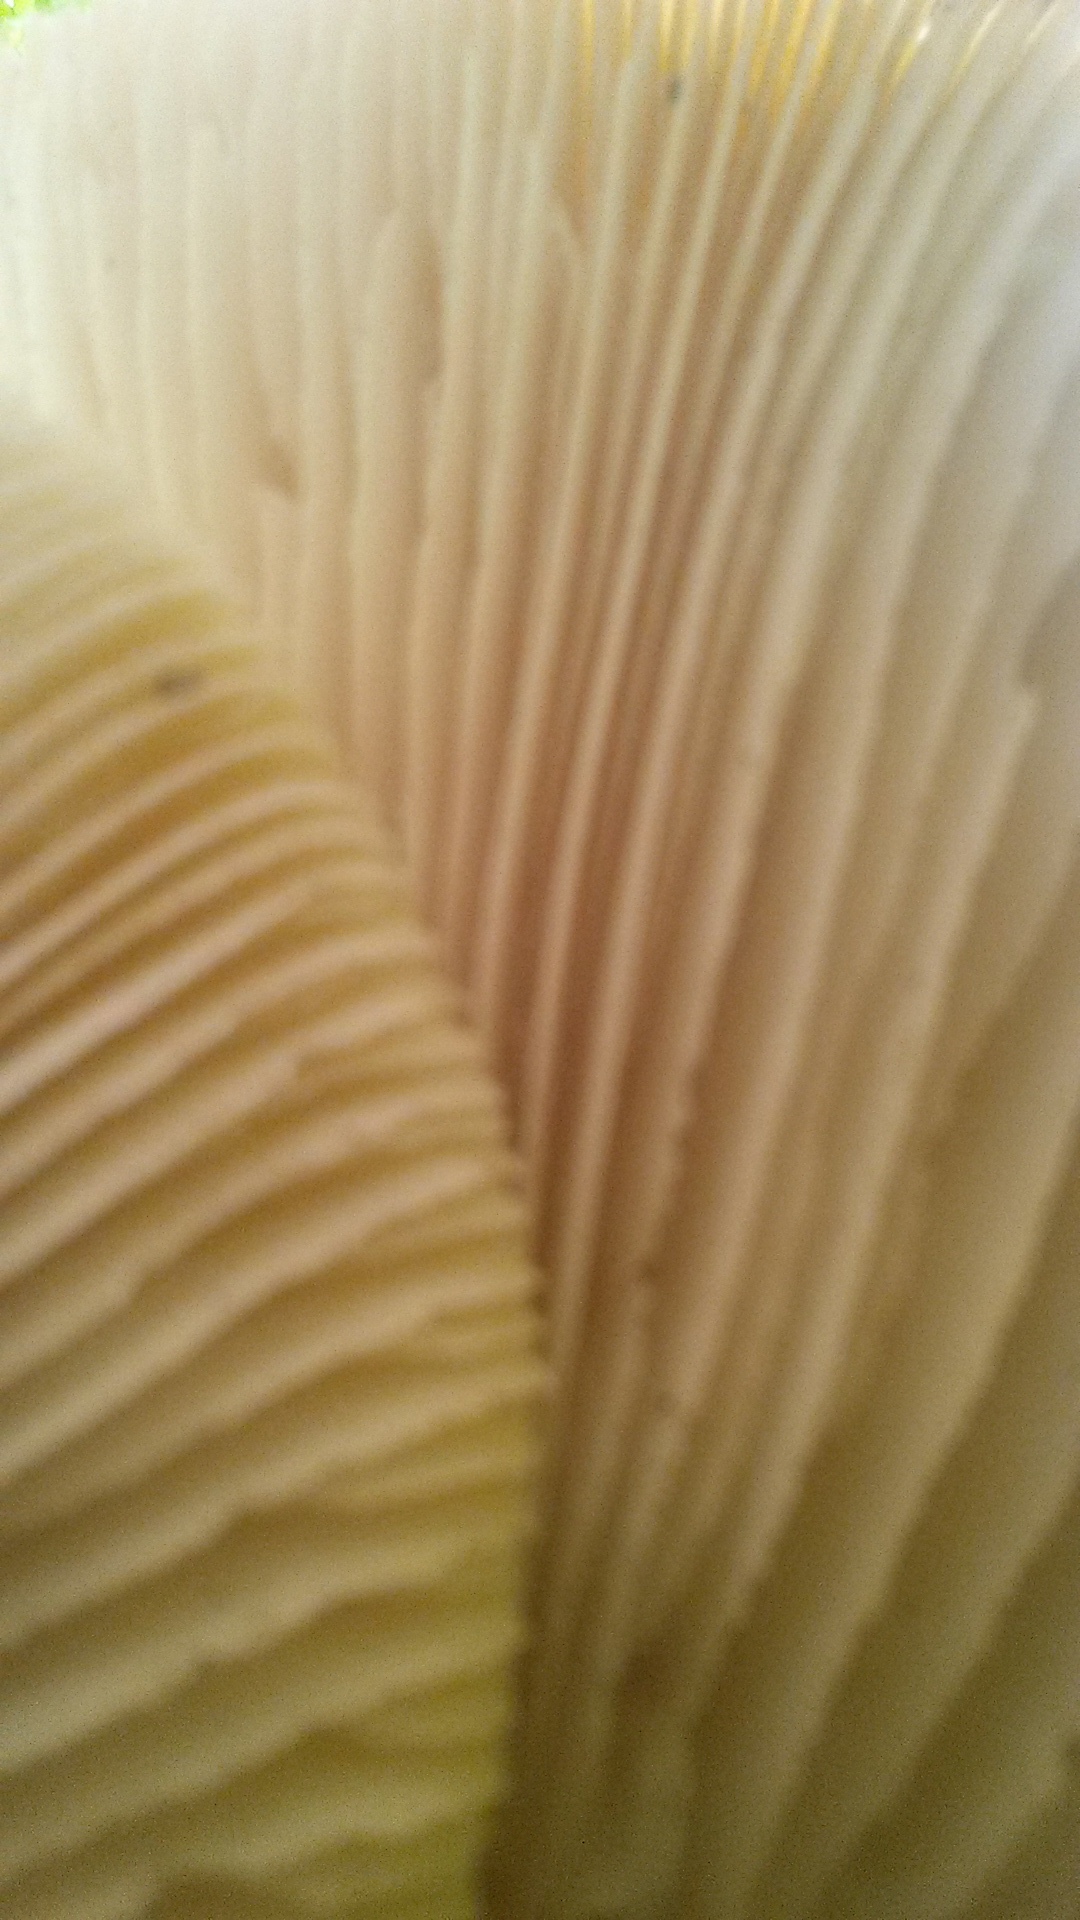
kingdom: Fungi
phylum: Basidiomycota
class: Agaricomycetes
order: Gloeophyllales
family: Gloeophyllaceae
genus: Neolentinus
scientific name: Neolentinus lepideus
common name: Scaly sawgill
